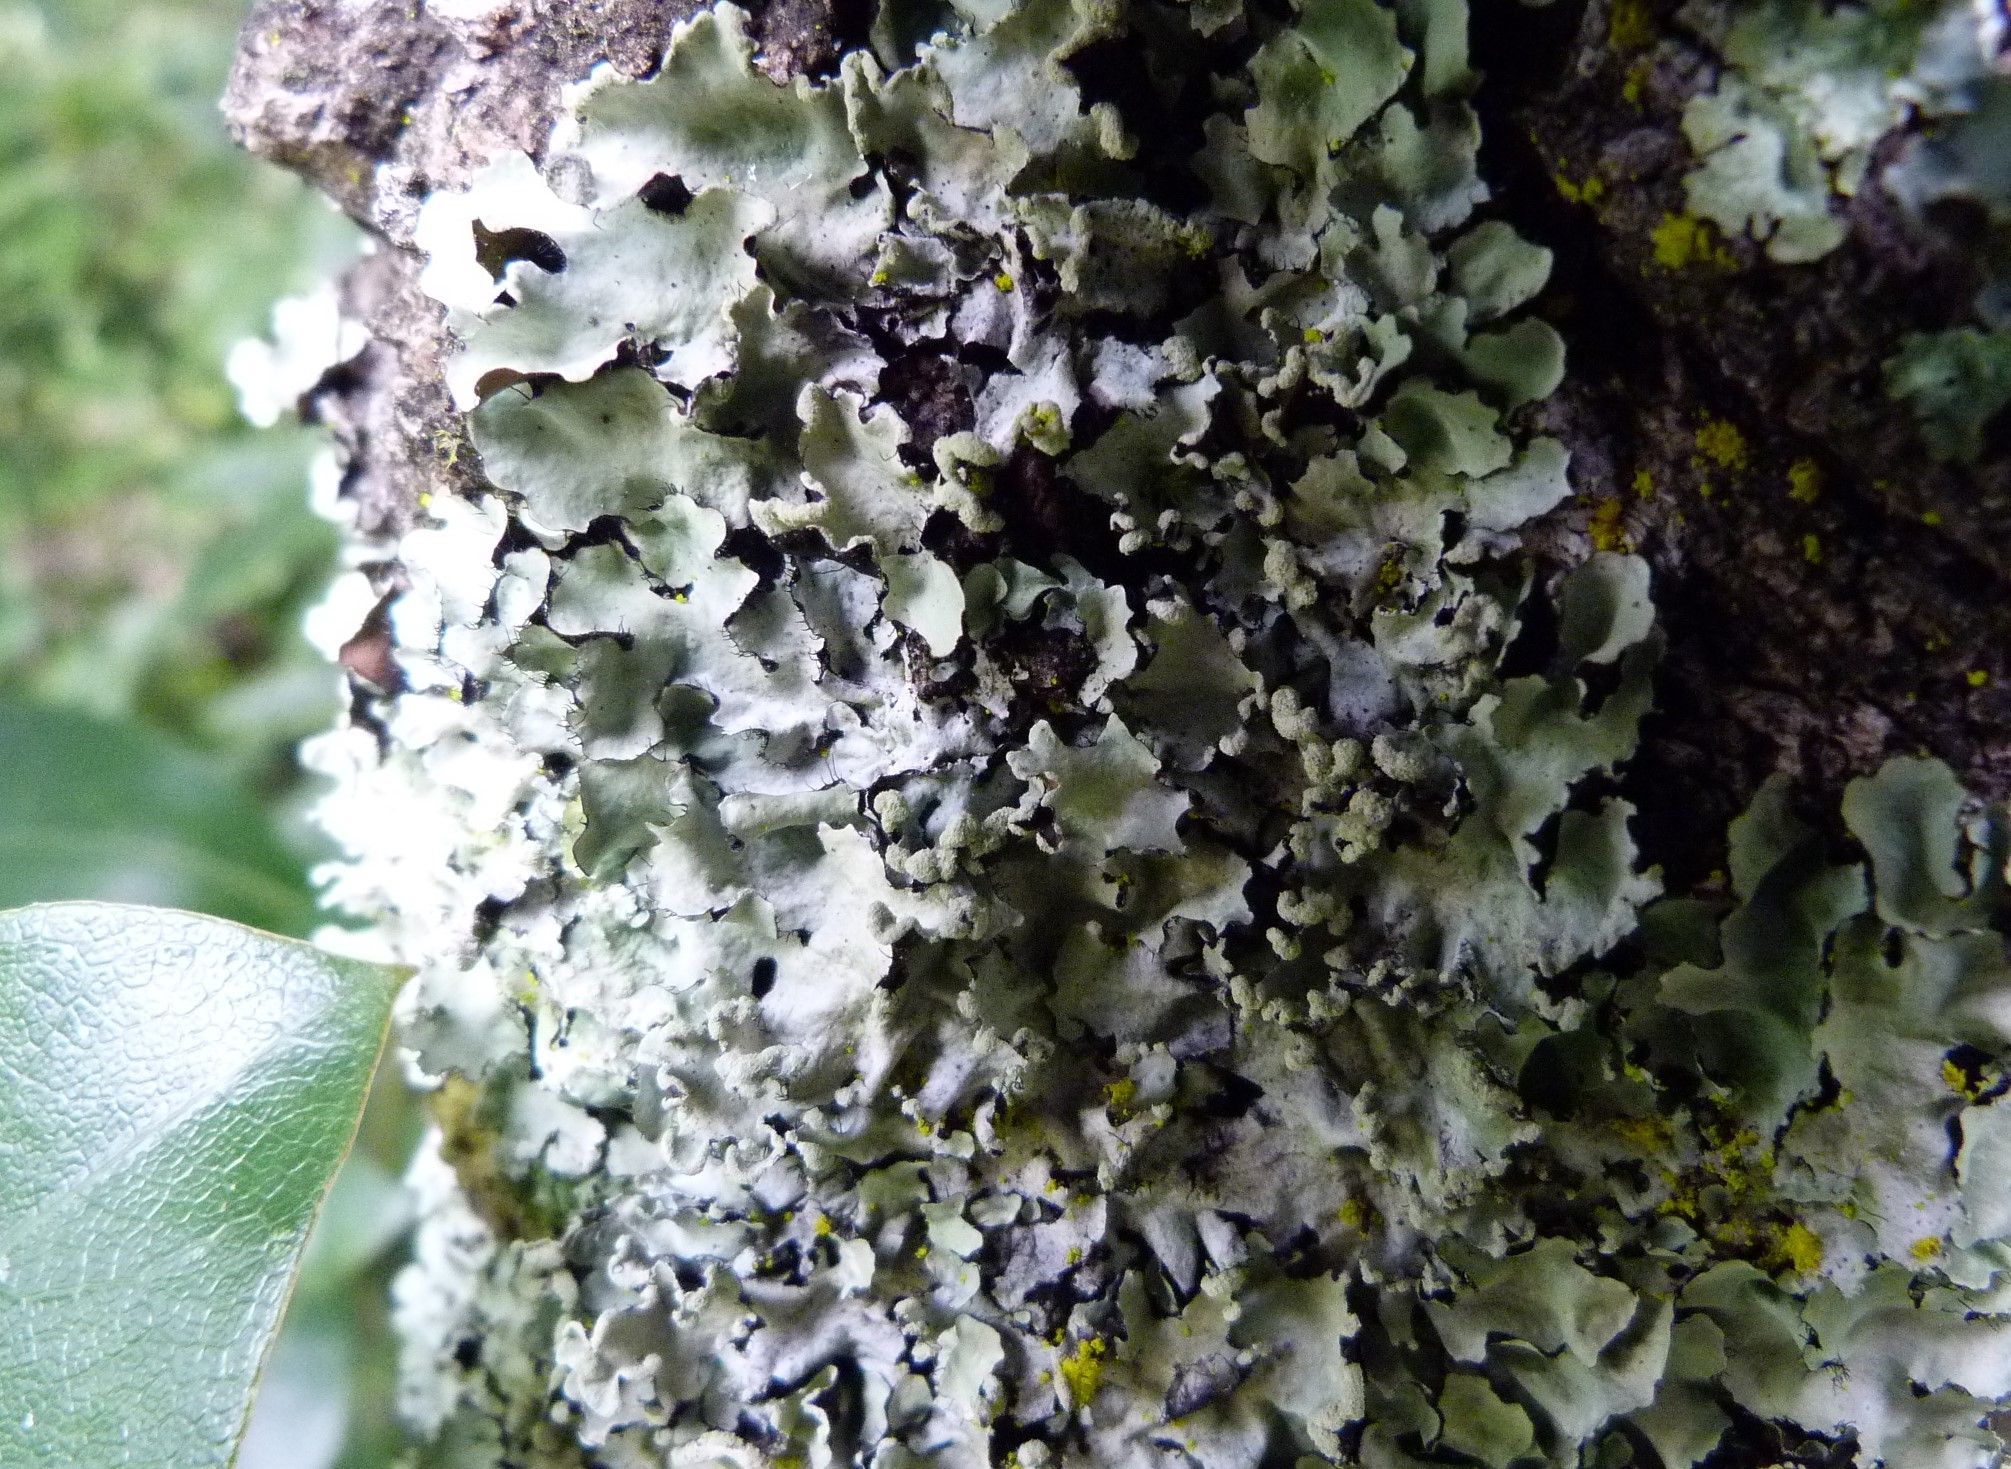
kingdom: Fungi
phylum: Ascomycota
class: Lecanoromycetes
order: Lecanorales
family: Parmeliaceae
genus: Parmotrema
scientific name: Parmotrema perlatum
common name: Black stone flower
